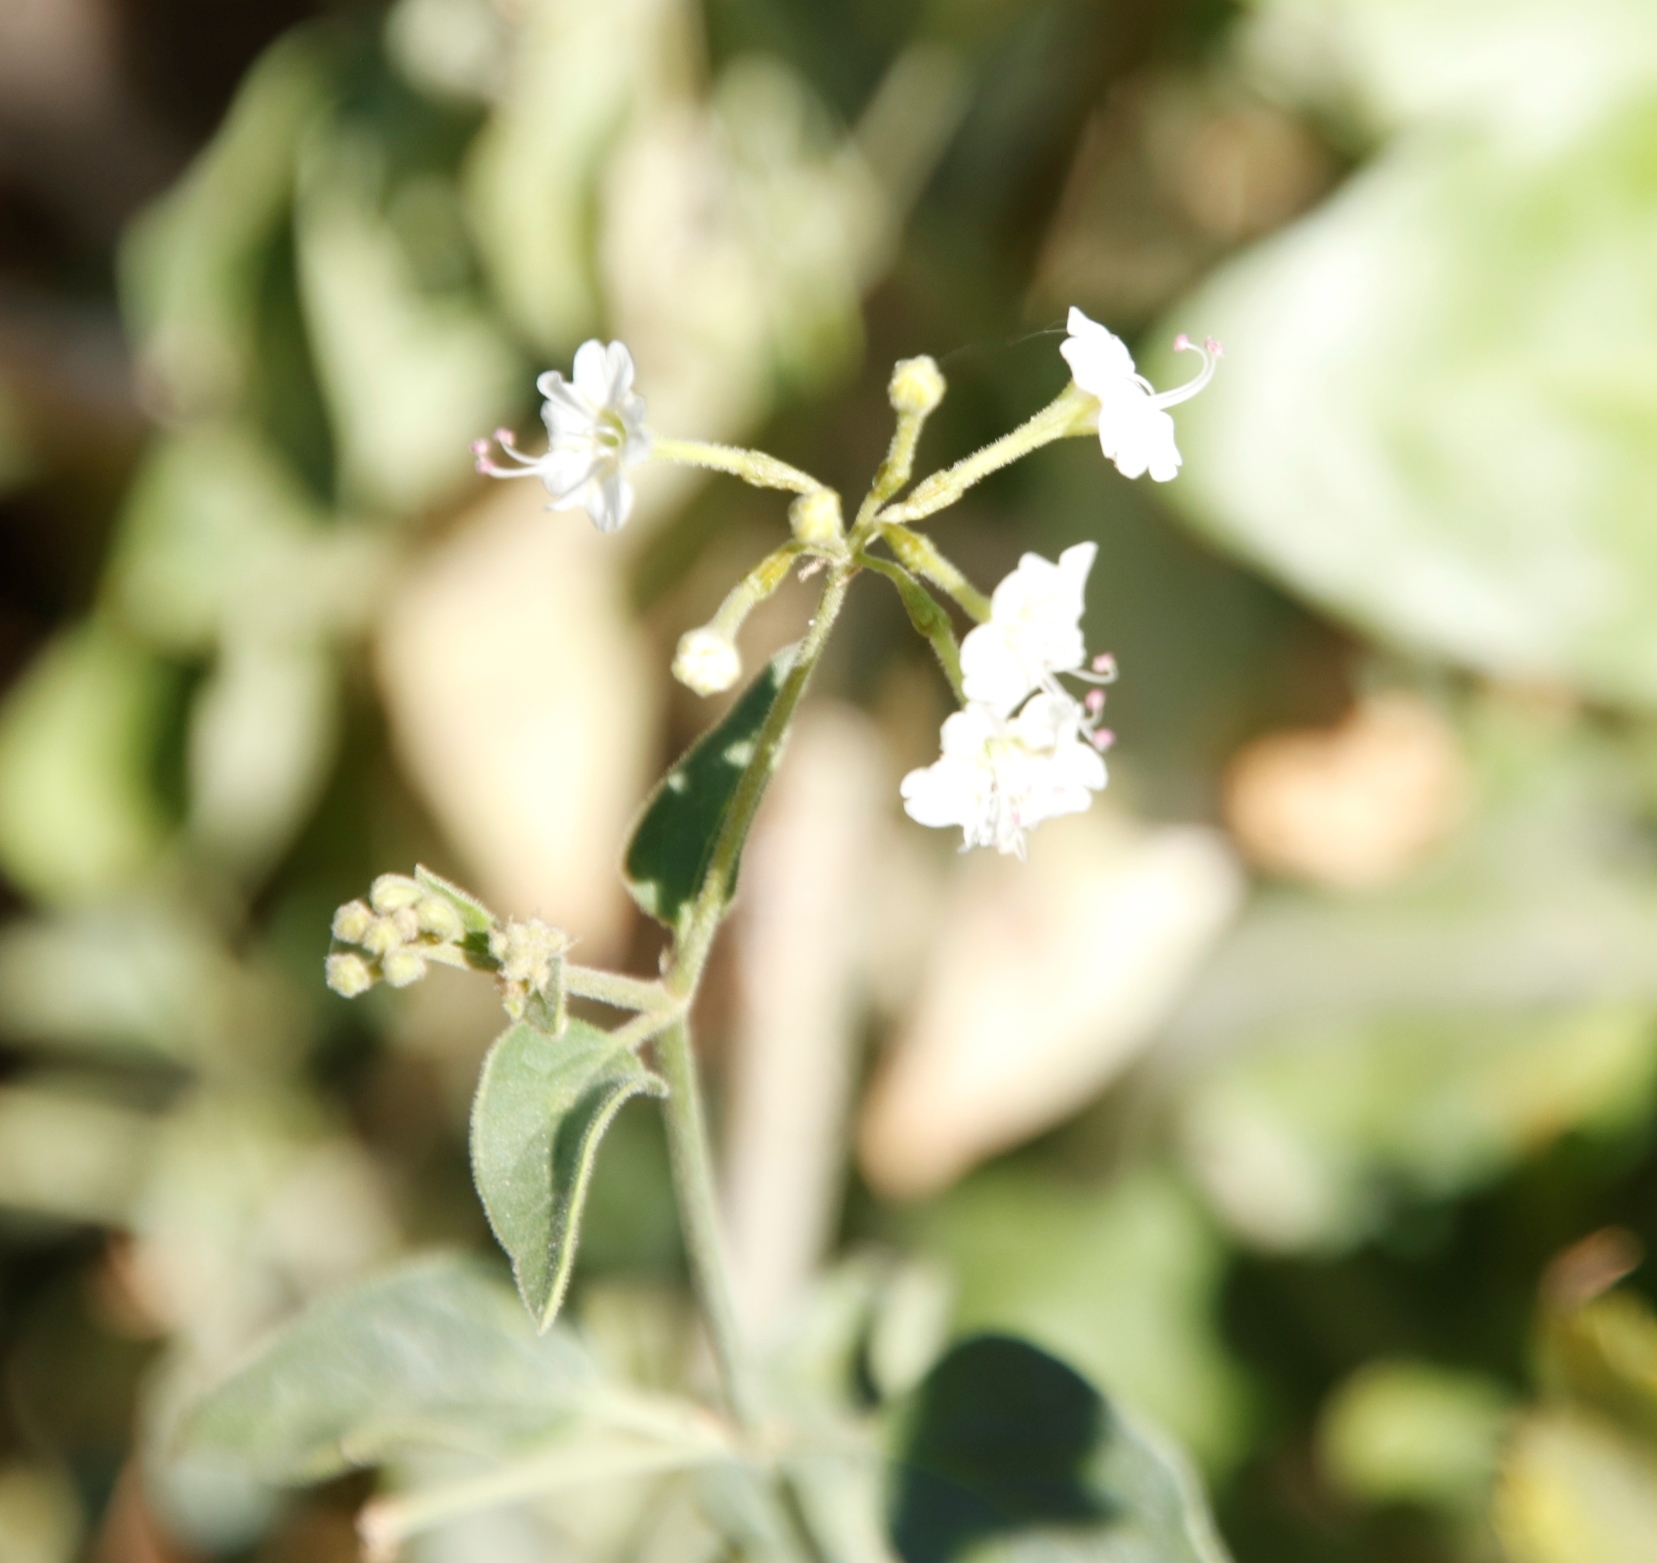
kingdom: Plantae
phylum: Tracheophyta
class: Magnoliopsida
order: Caryophyllales
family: Nyctaginaceae
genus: Commicarpus
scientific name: Commicarpus plumbagineus
